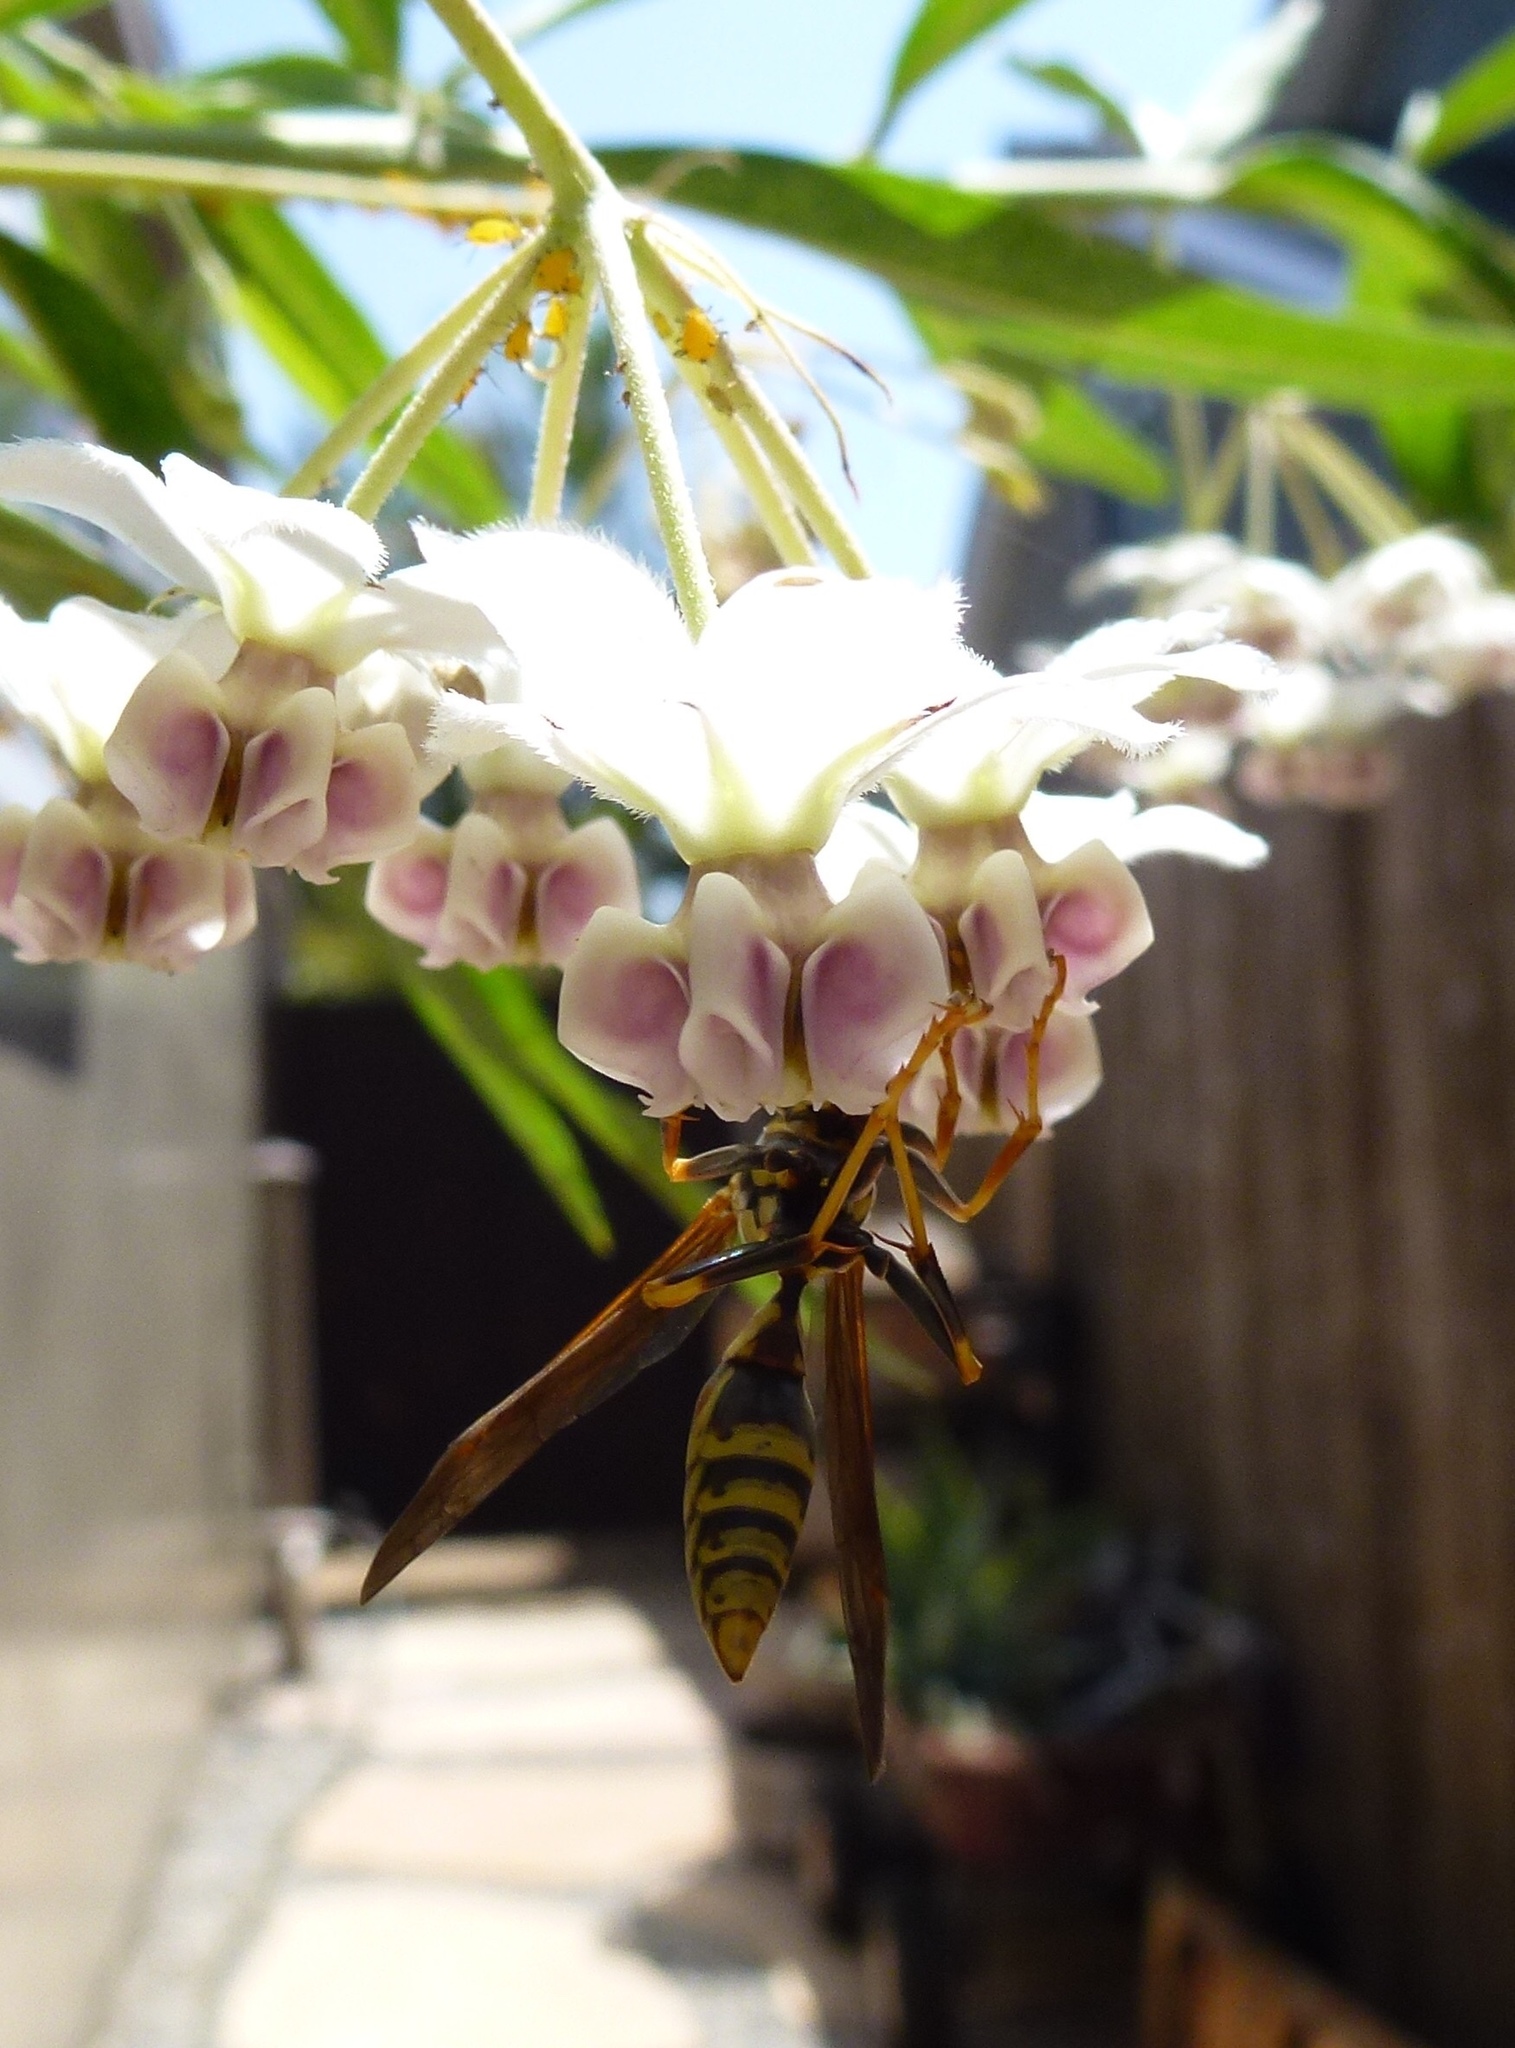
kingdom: Animalia
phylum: Arthropoda
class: Insecta
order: Hymenoptera
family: Eumenidae
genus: Polistes
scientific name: Polistes exclamans
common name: Paper wasp
